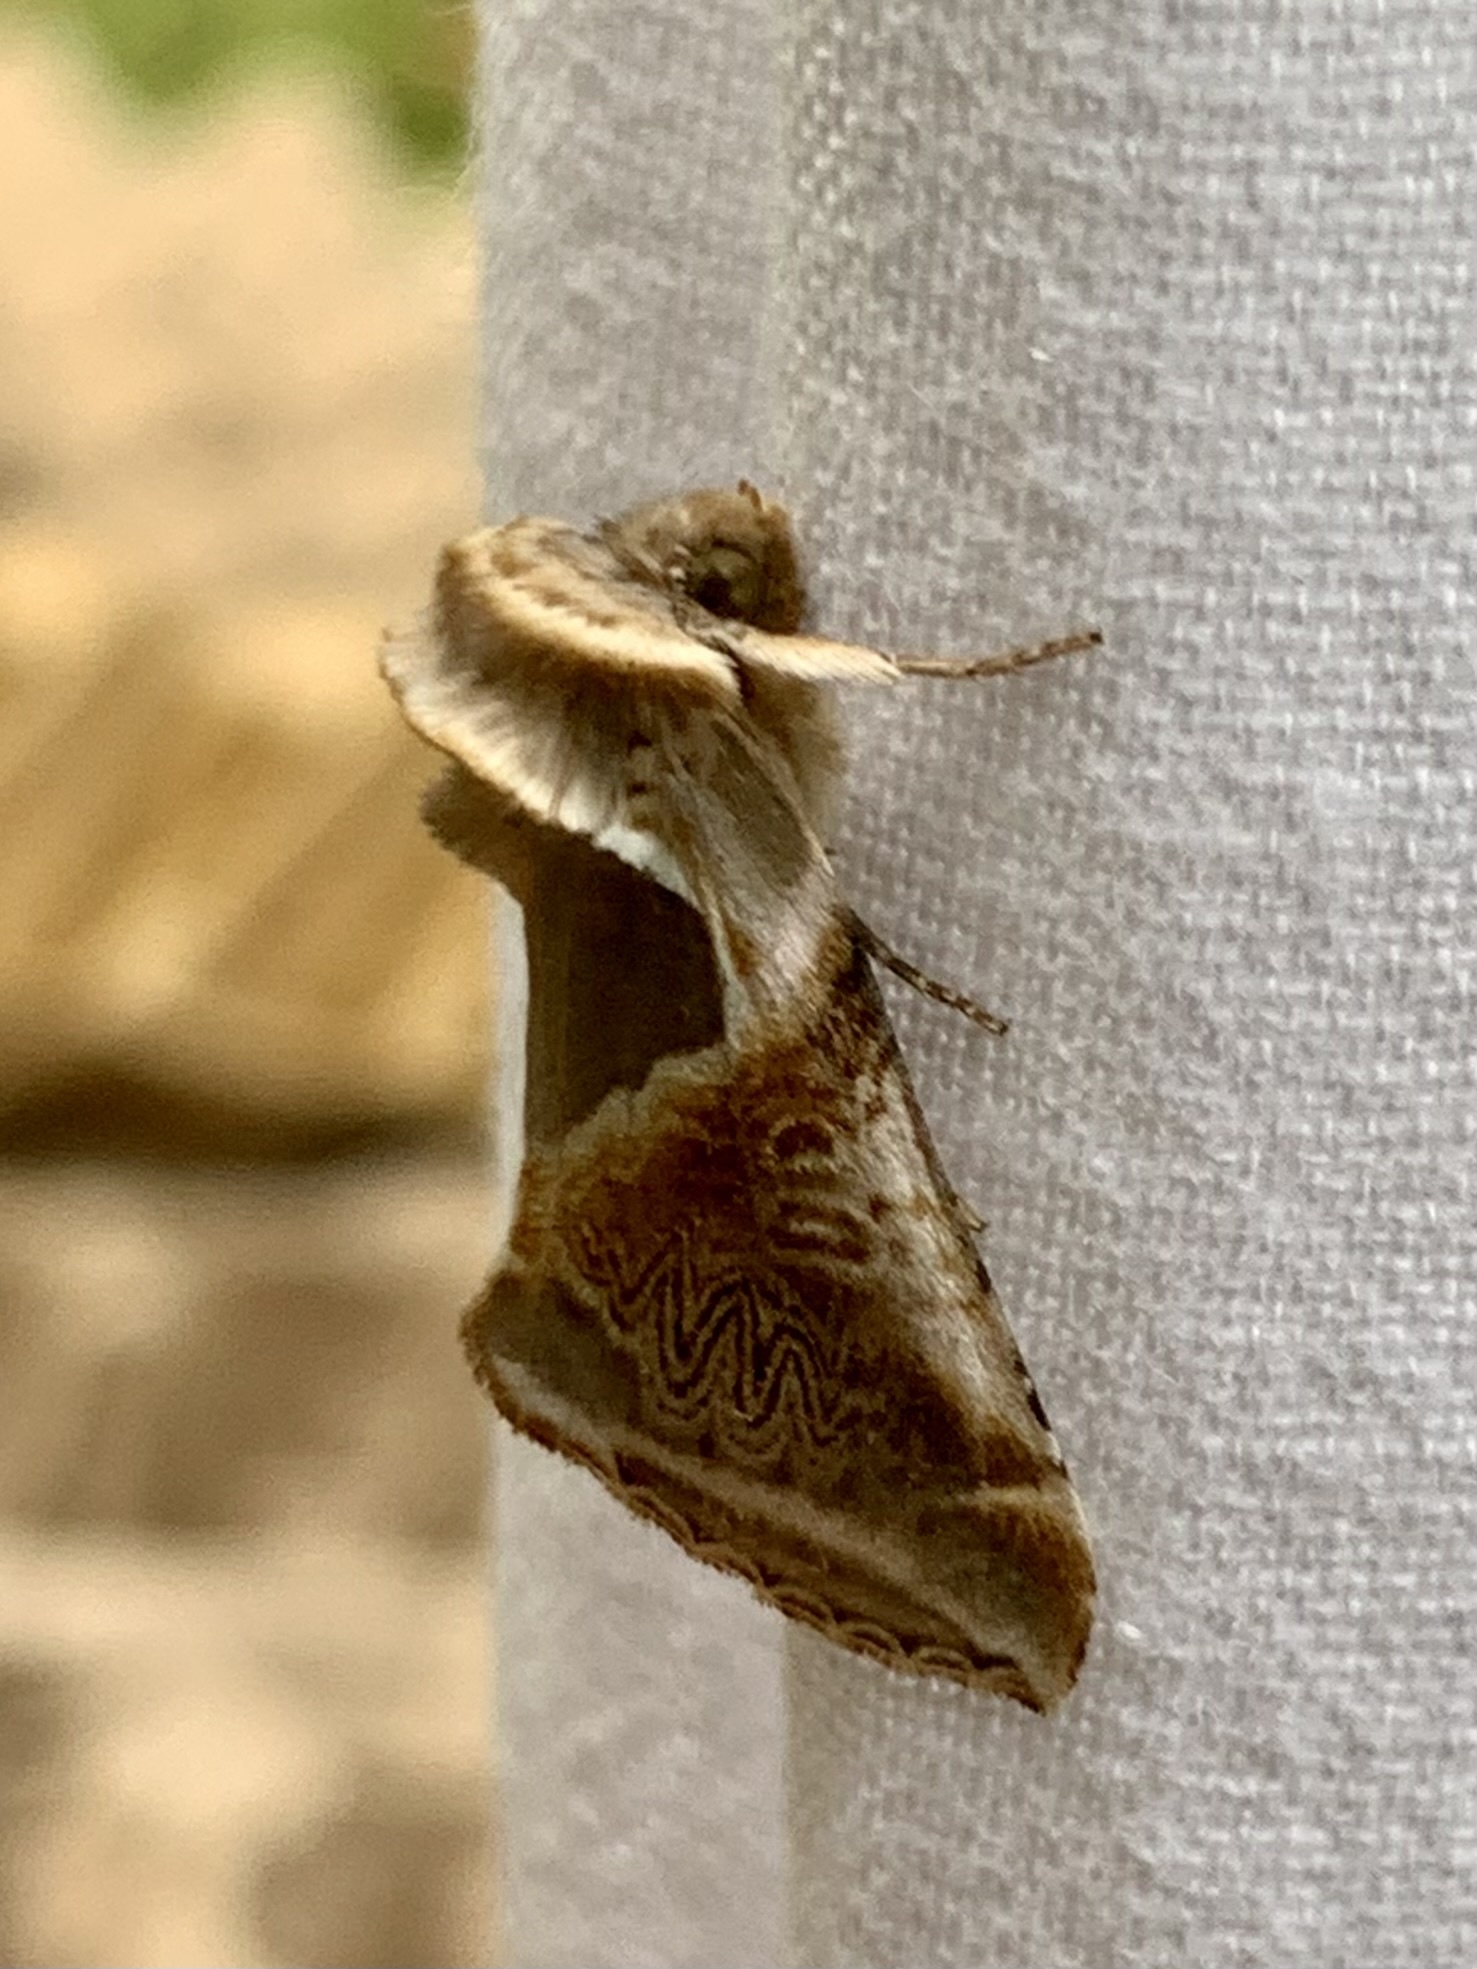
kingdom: Animalia
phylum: Arthropoda
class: Insecta
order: Lepidoptera
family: Drepanidae
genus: Habrosyne
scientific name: Habrosyne pyritoides
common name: Buff arches
